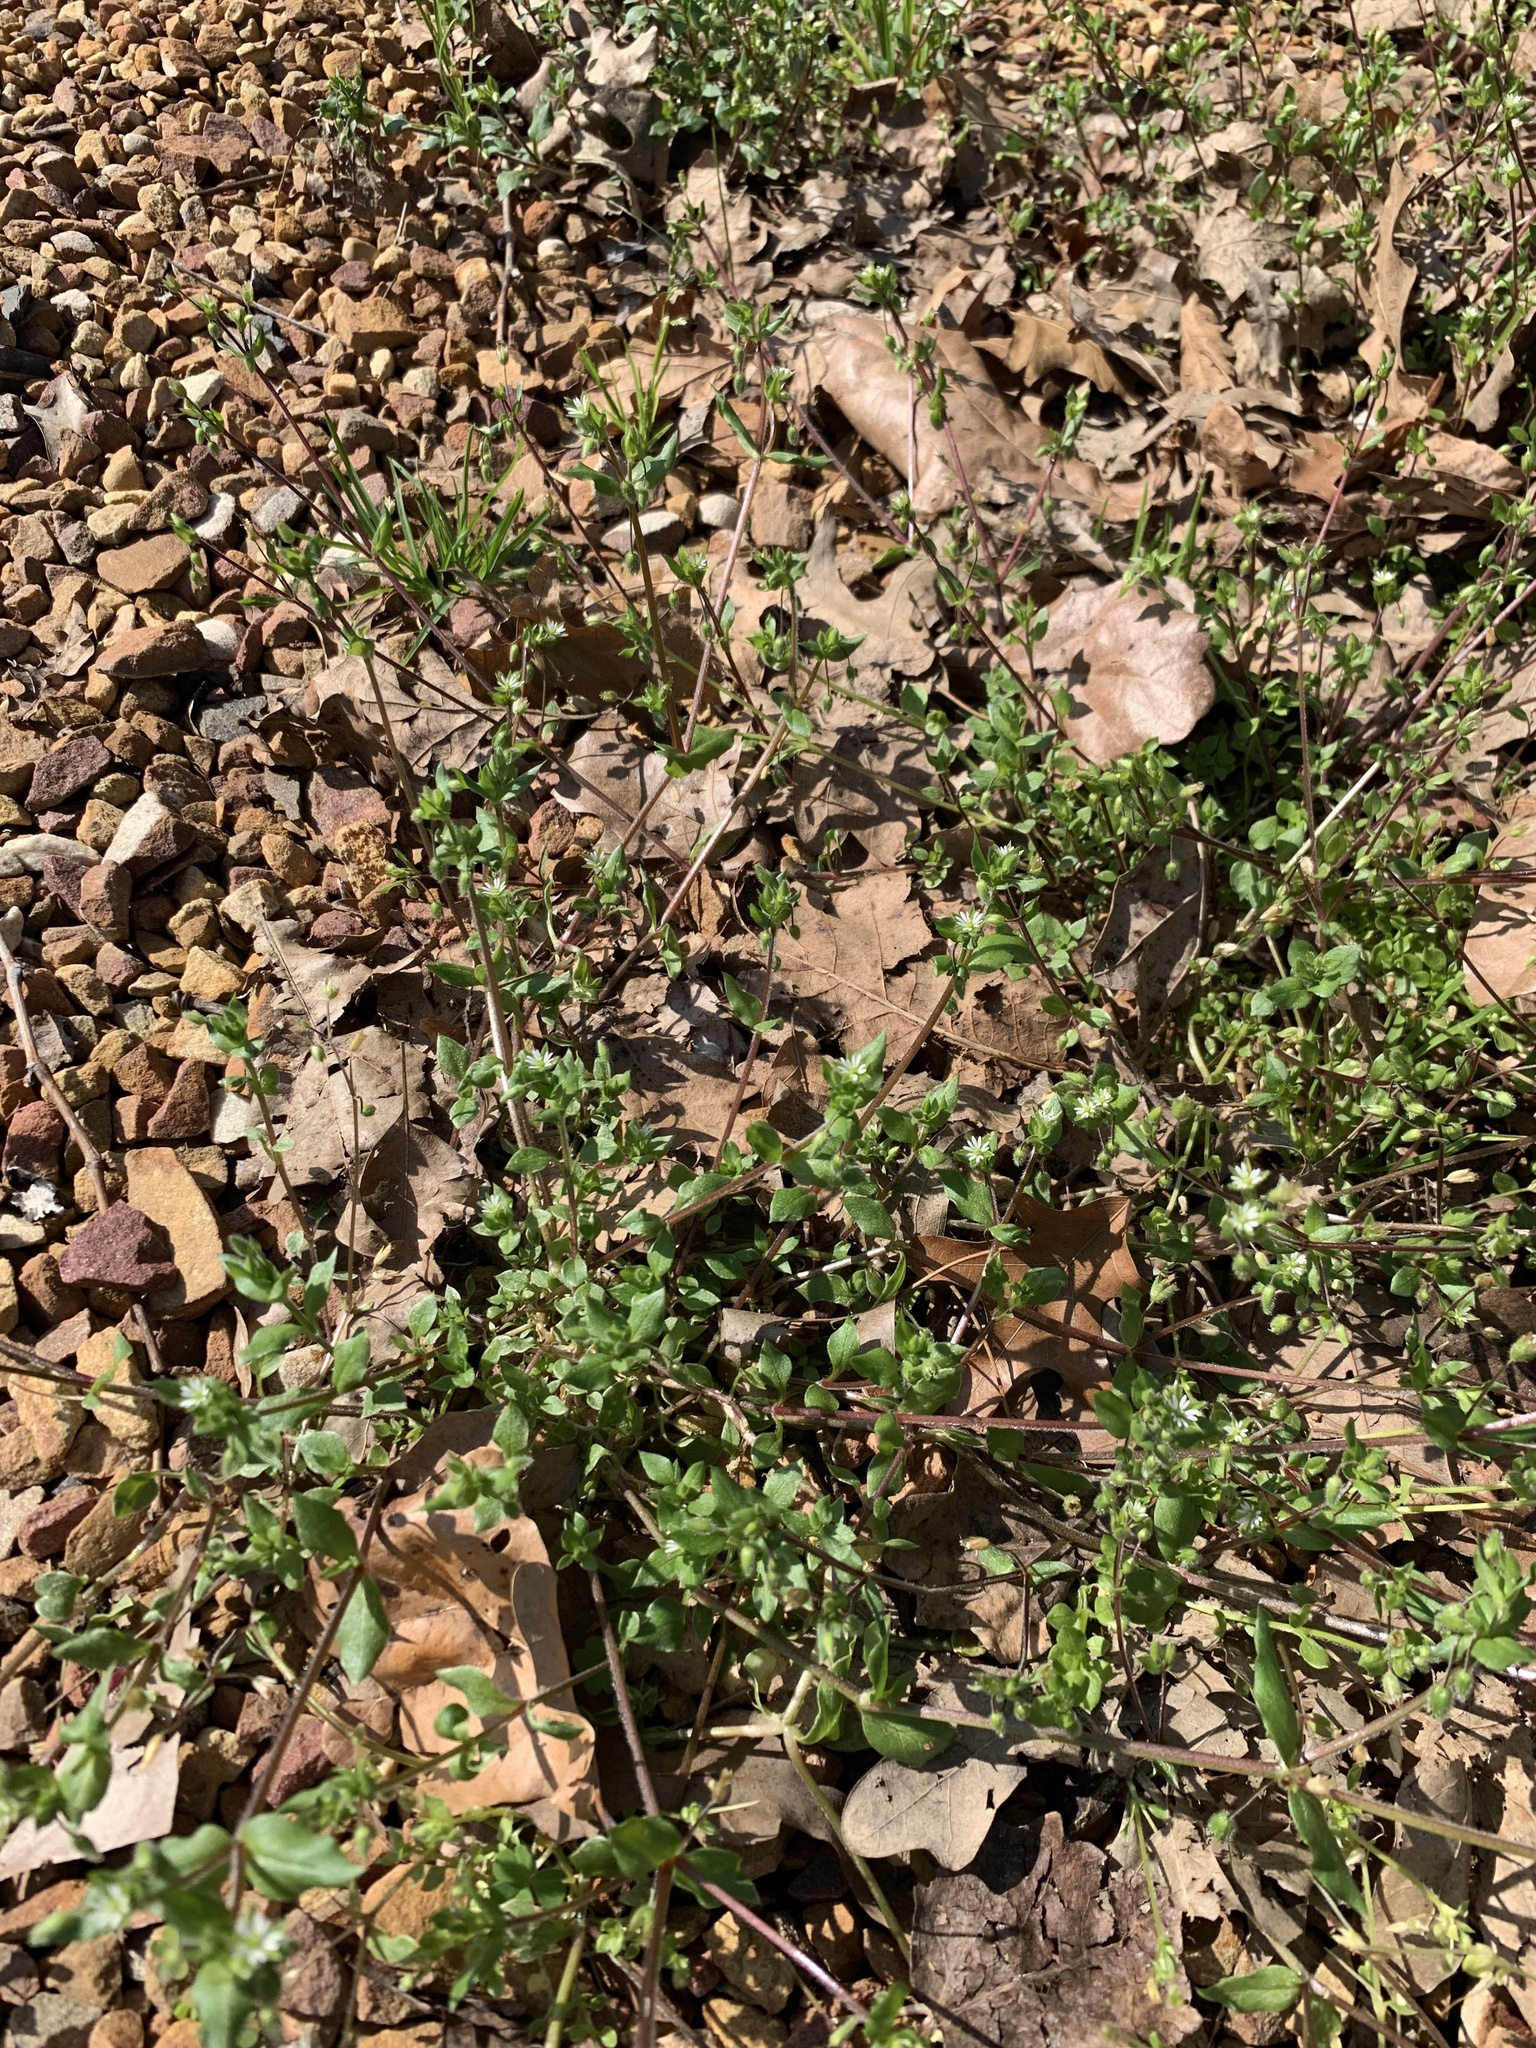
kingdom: Plantae
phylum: Tracheophyta
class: Magnoliopsida
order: Caryophyllales
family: Caryophyllaceae
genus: Stellaria
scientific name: Stellaria media
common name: Common chickweed
